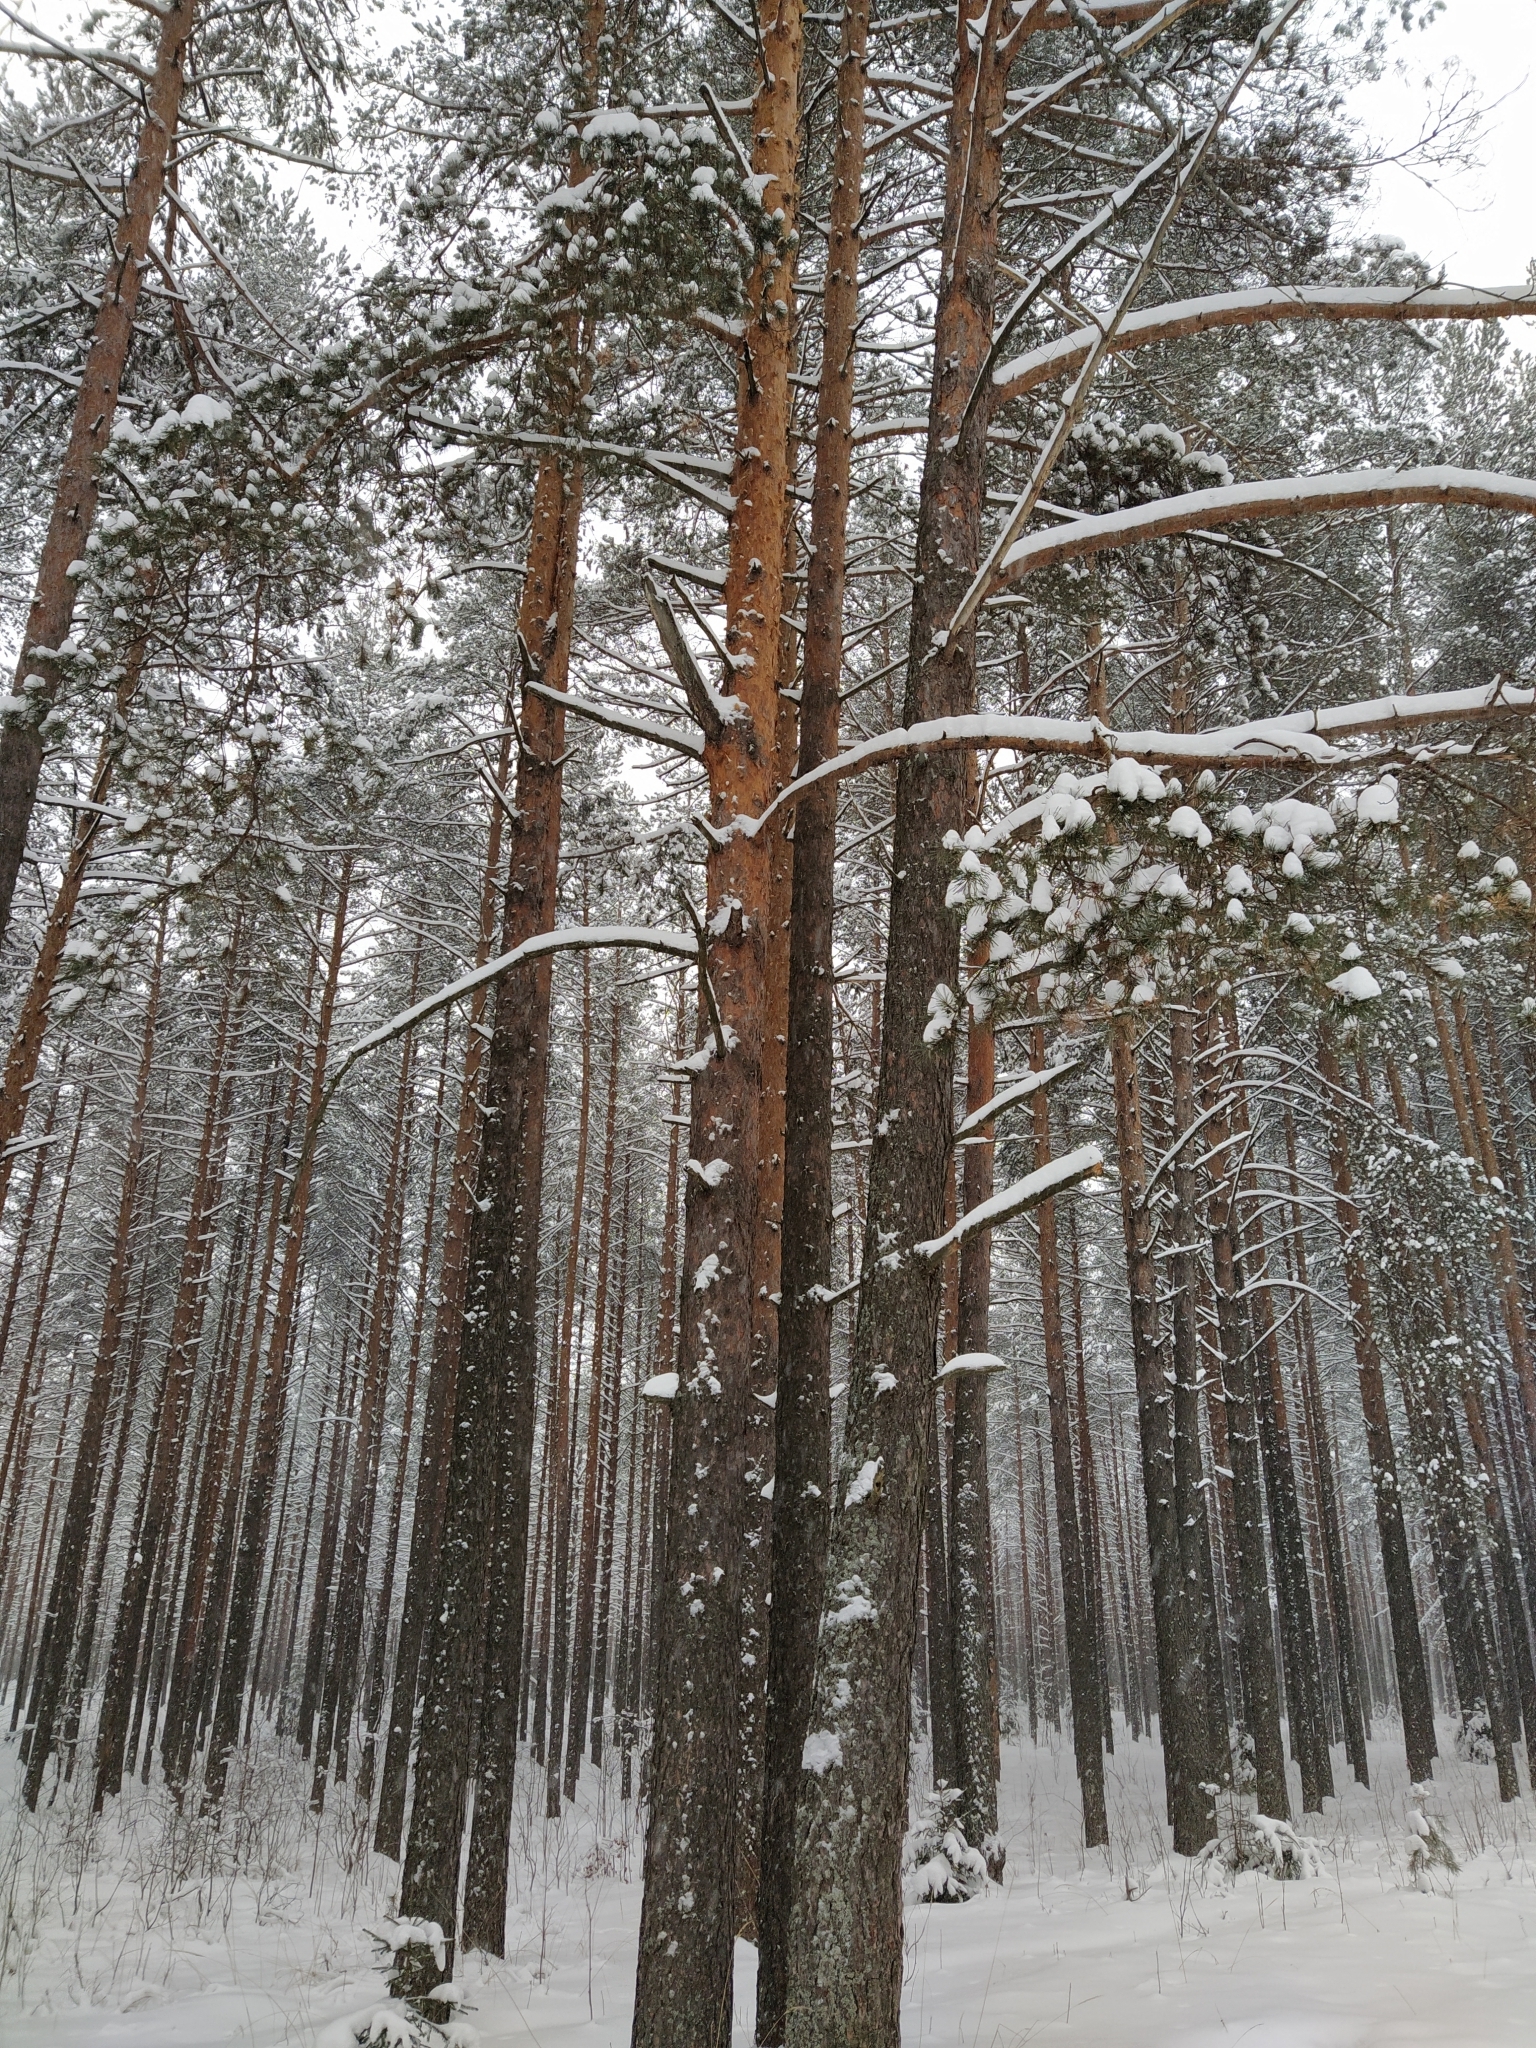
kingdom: Plantae
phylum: Tracheophyta
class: Pinopsida
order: Pinales
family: Pinaceae
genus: Pinus
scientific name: Pinus sylvestris
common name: Scots pine
